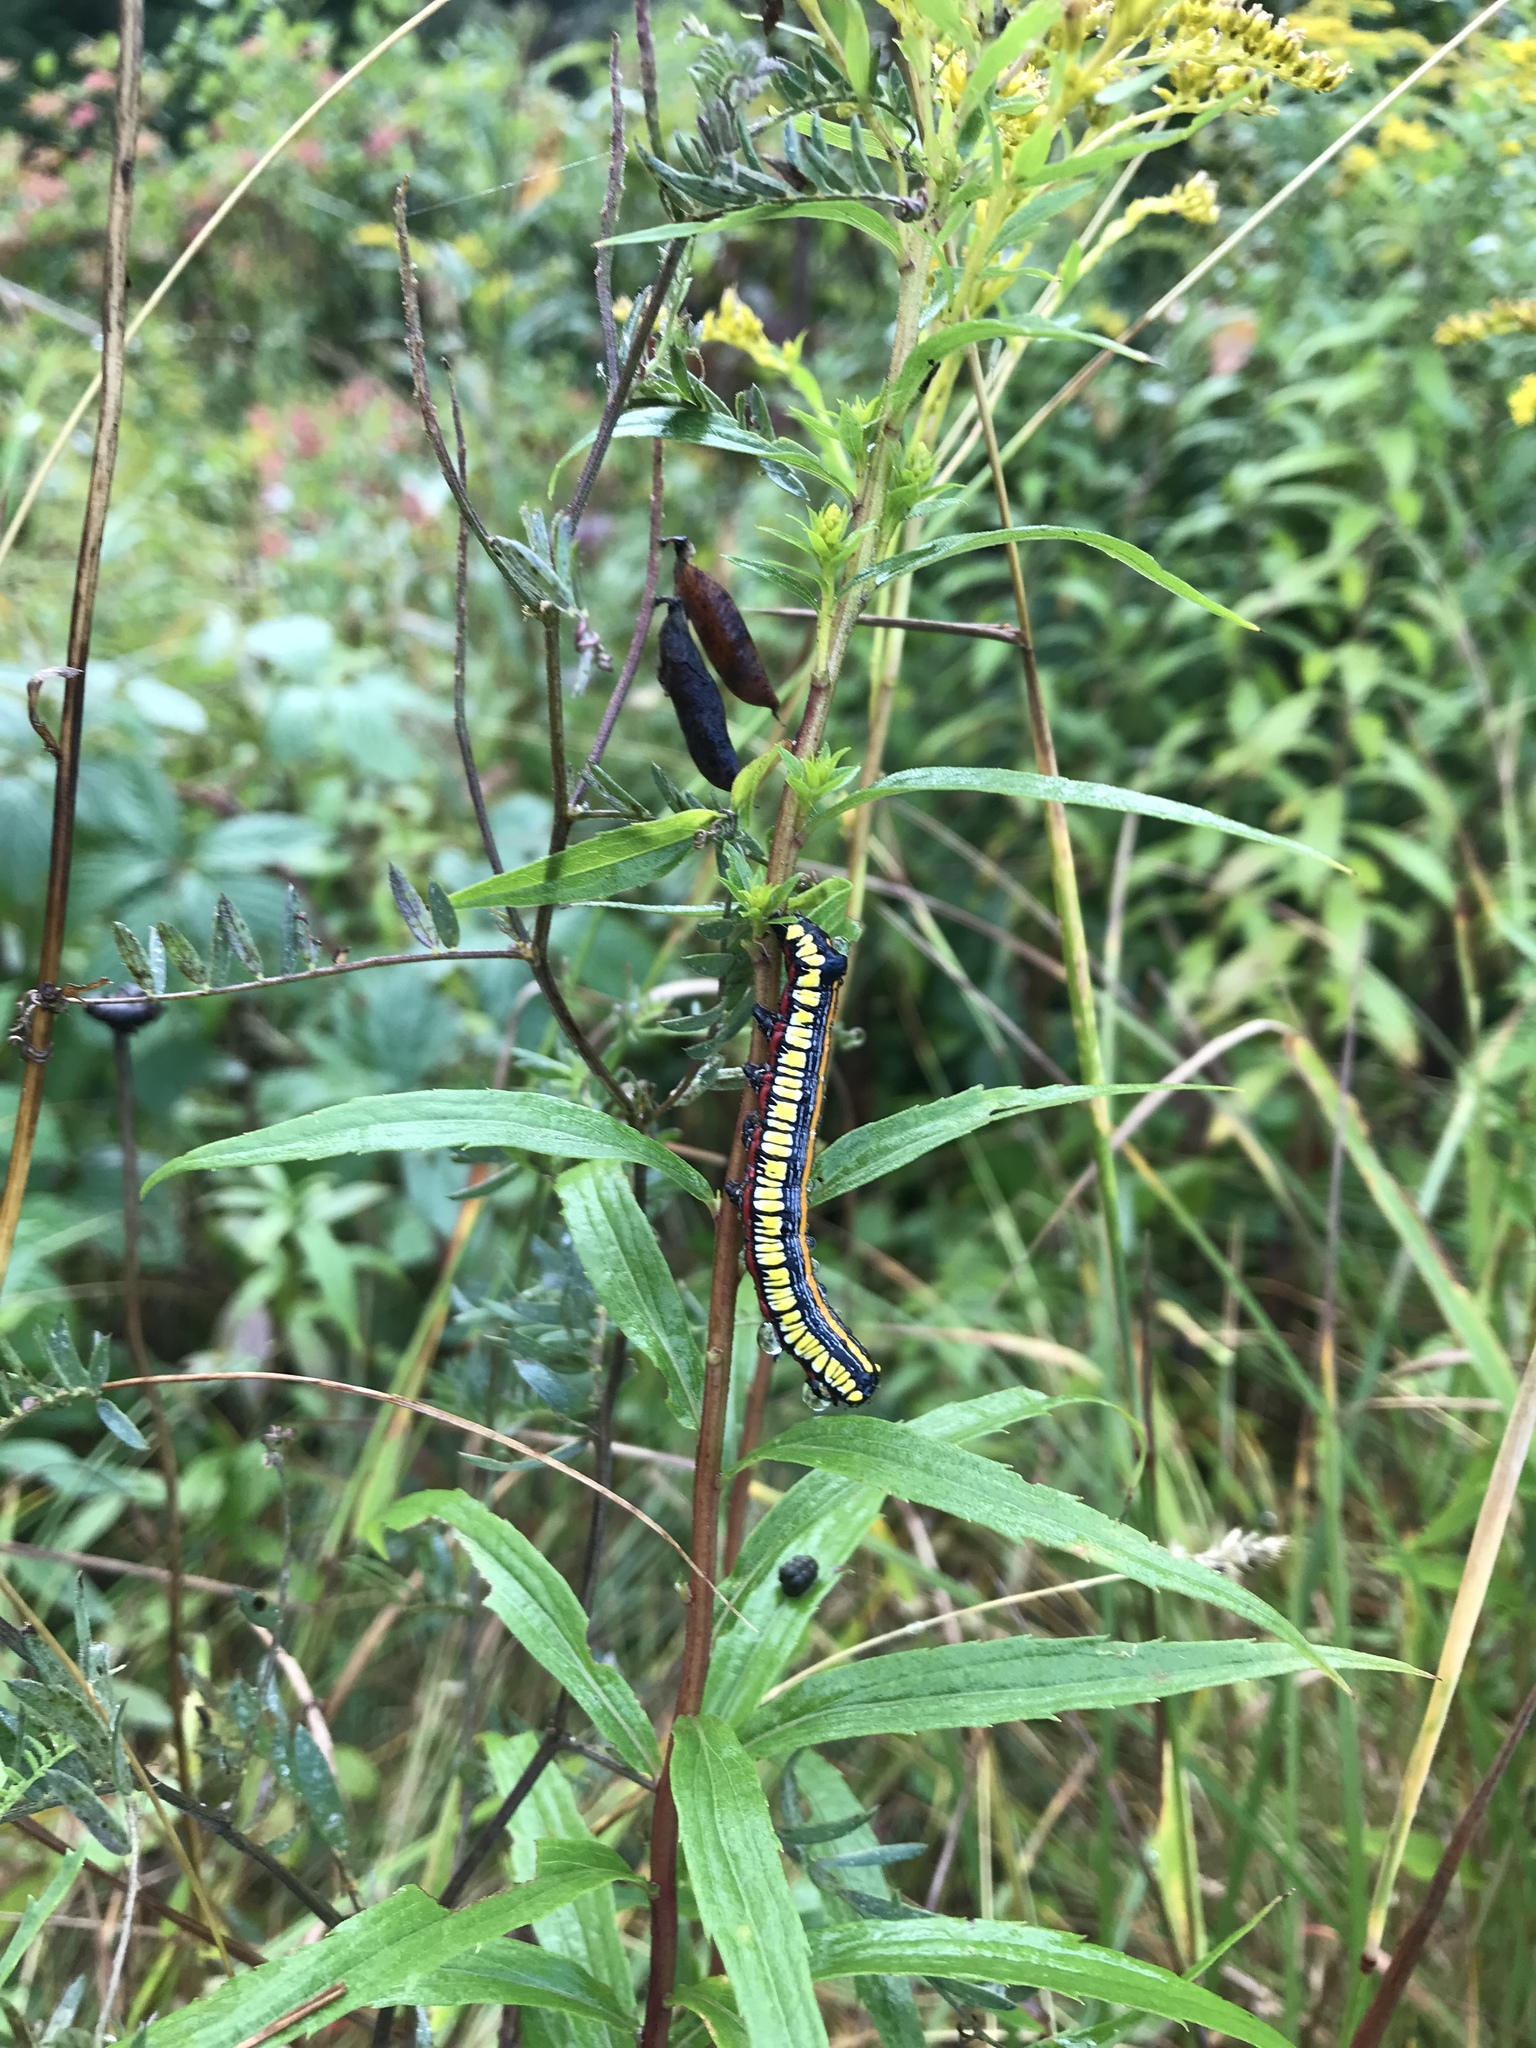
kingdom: Animalia
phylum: Arthropoda
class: Insecta
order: Lepidoptera
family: Noctuidae
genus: Cucullia
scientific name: Cucullia convexipennis
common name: Brown-hooded owlet
